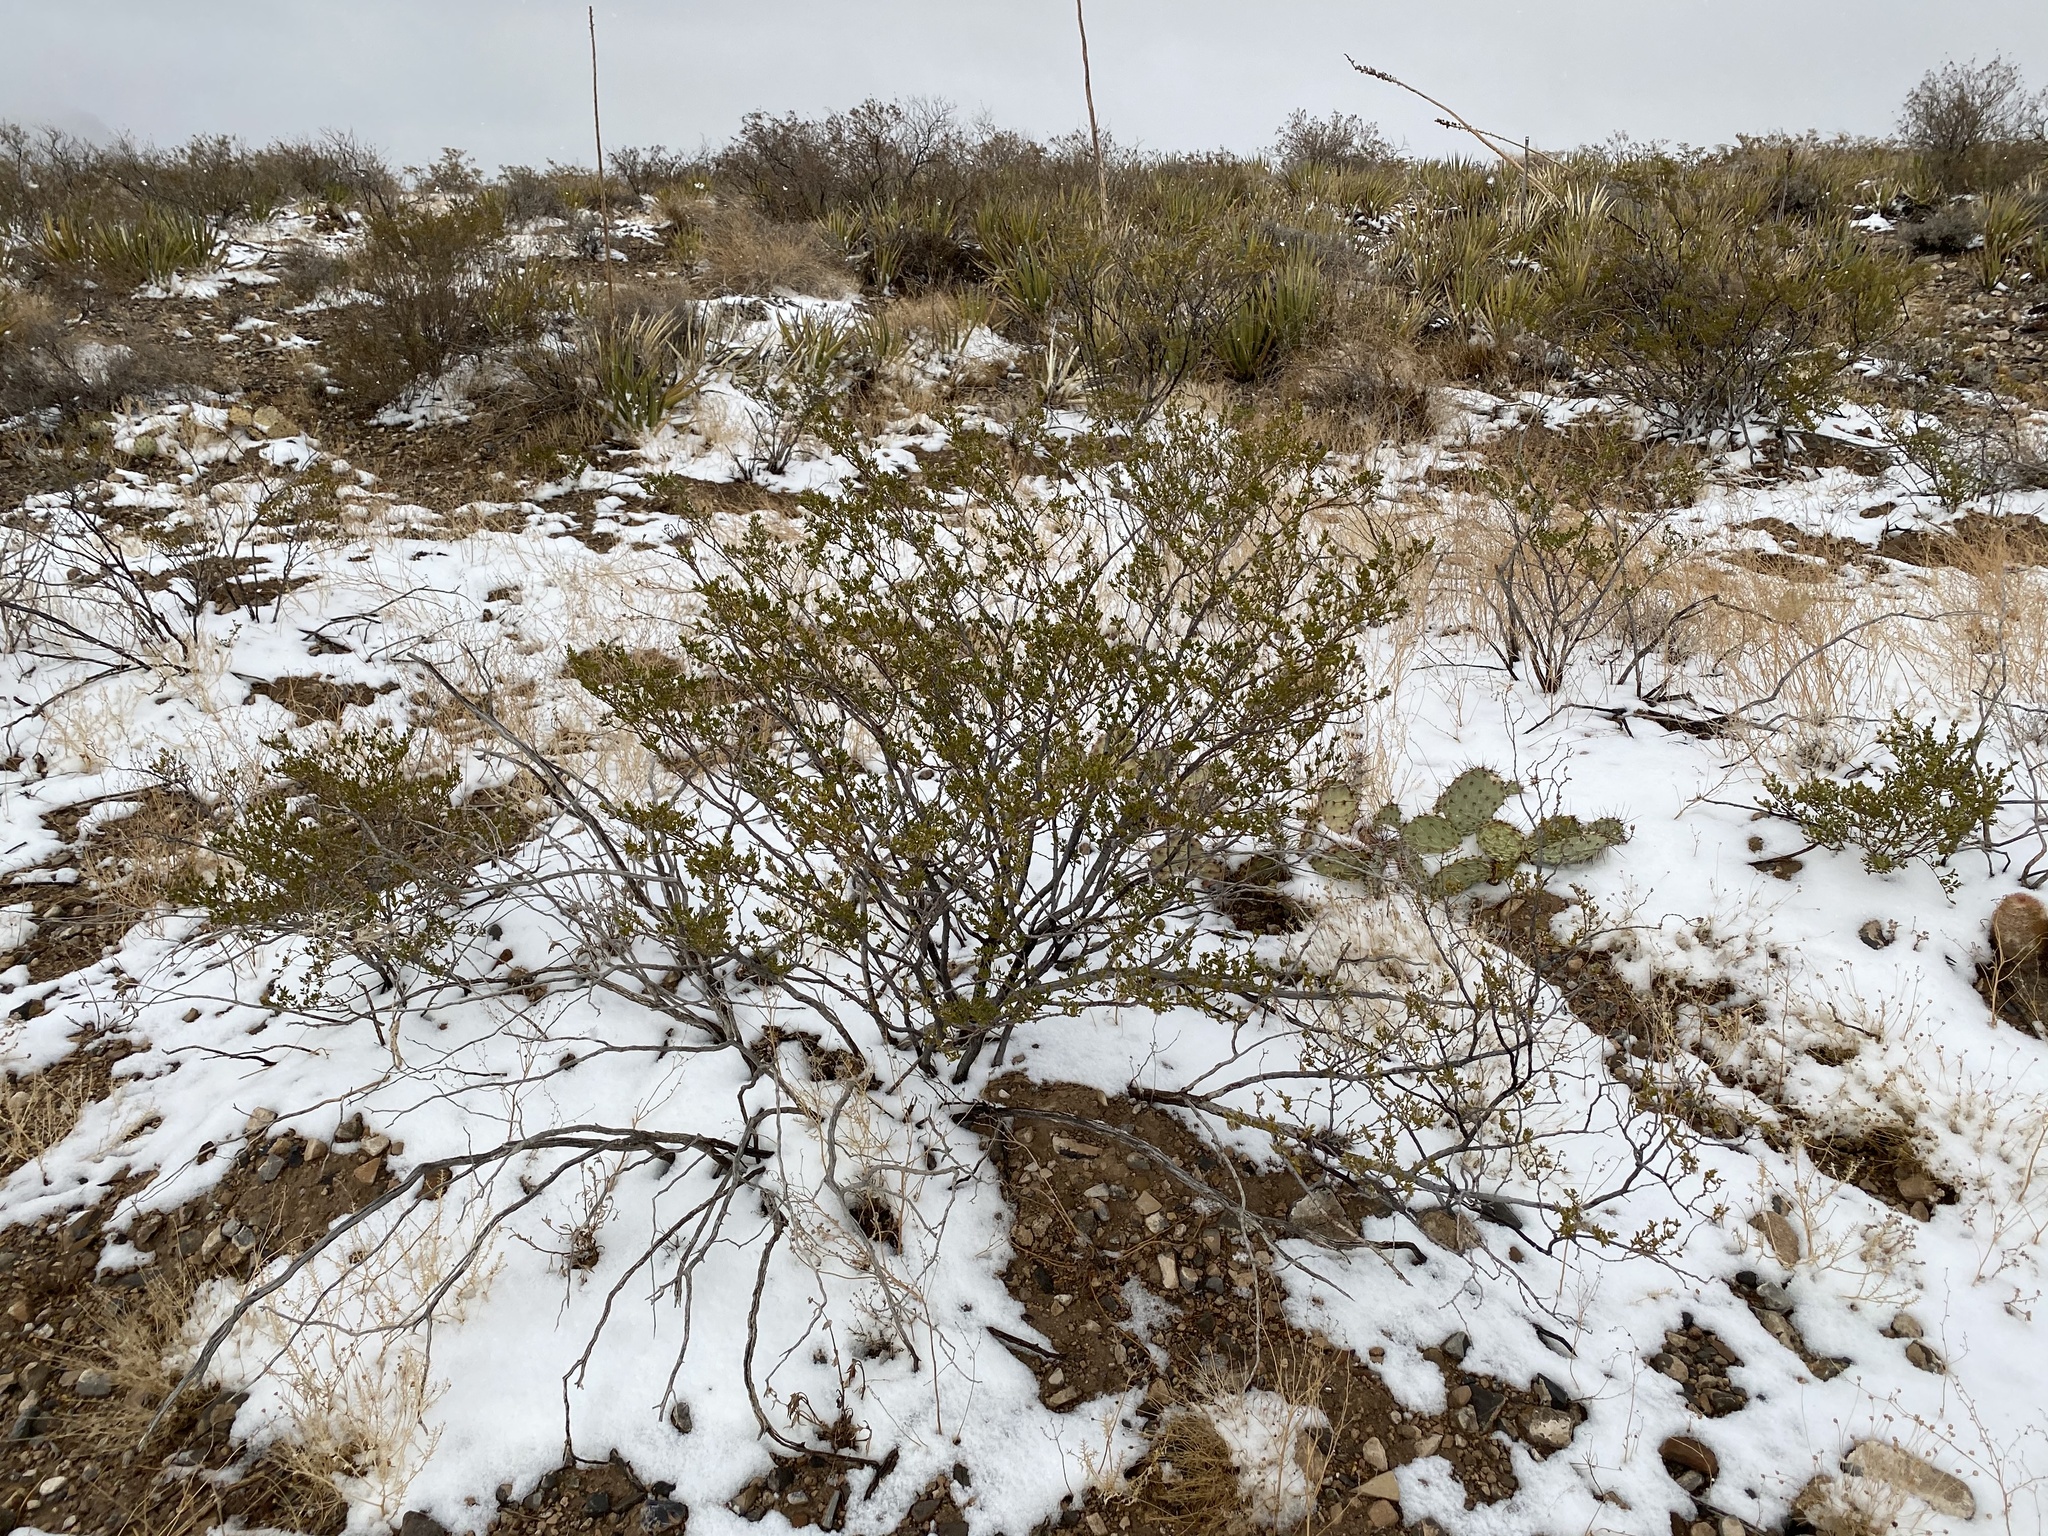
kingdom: Plantae
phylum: Tracheophyta
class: Magnoliopsida
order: Zygophyllales
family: Zygophyllaceae
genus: Larrea
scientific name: Larrea tridentata
